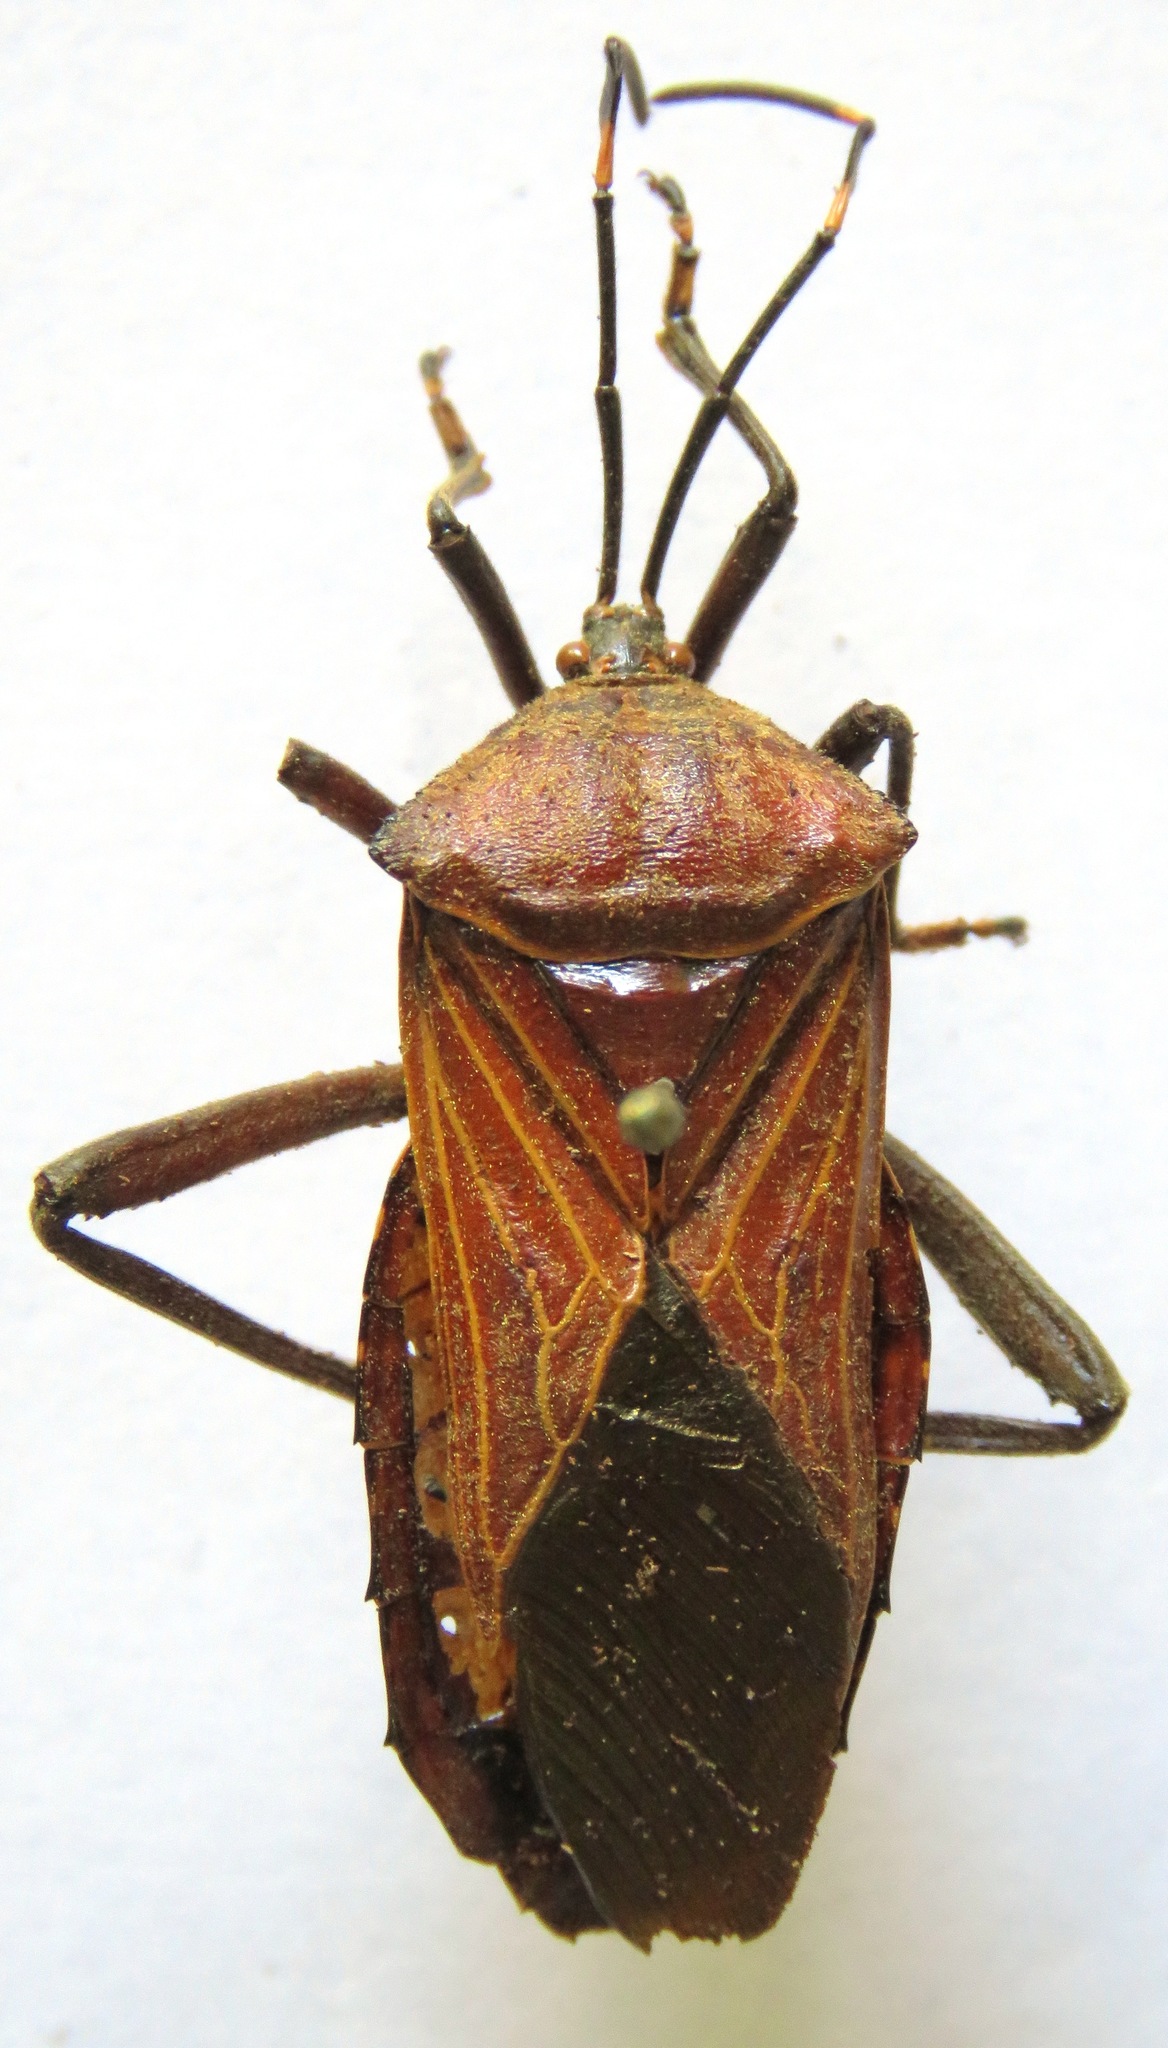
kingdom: Animalia
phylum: Arthropoda
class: Insecta
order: Hemiptera
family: Coreidae
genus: Pachylis
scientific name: Pachylis nervosus
